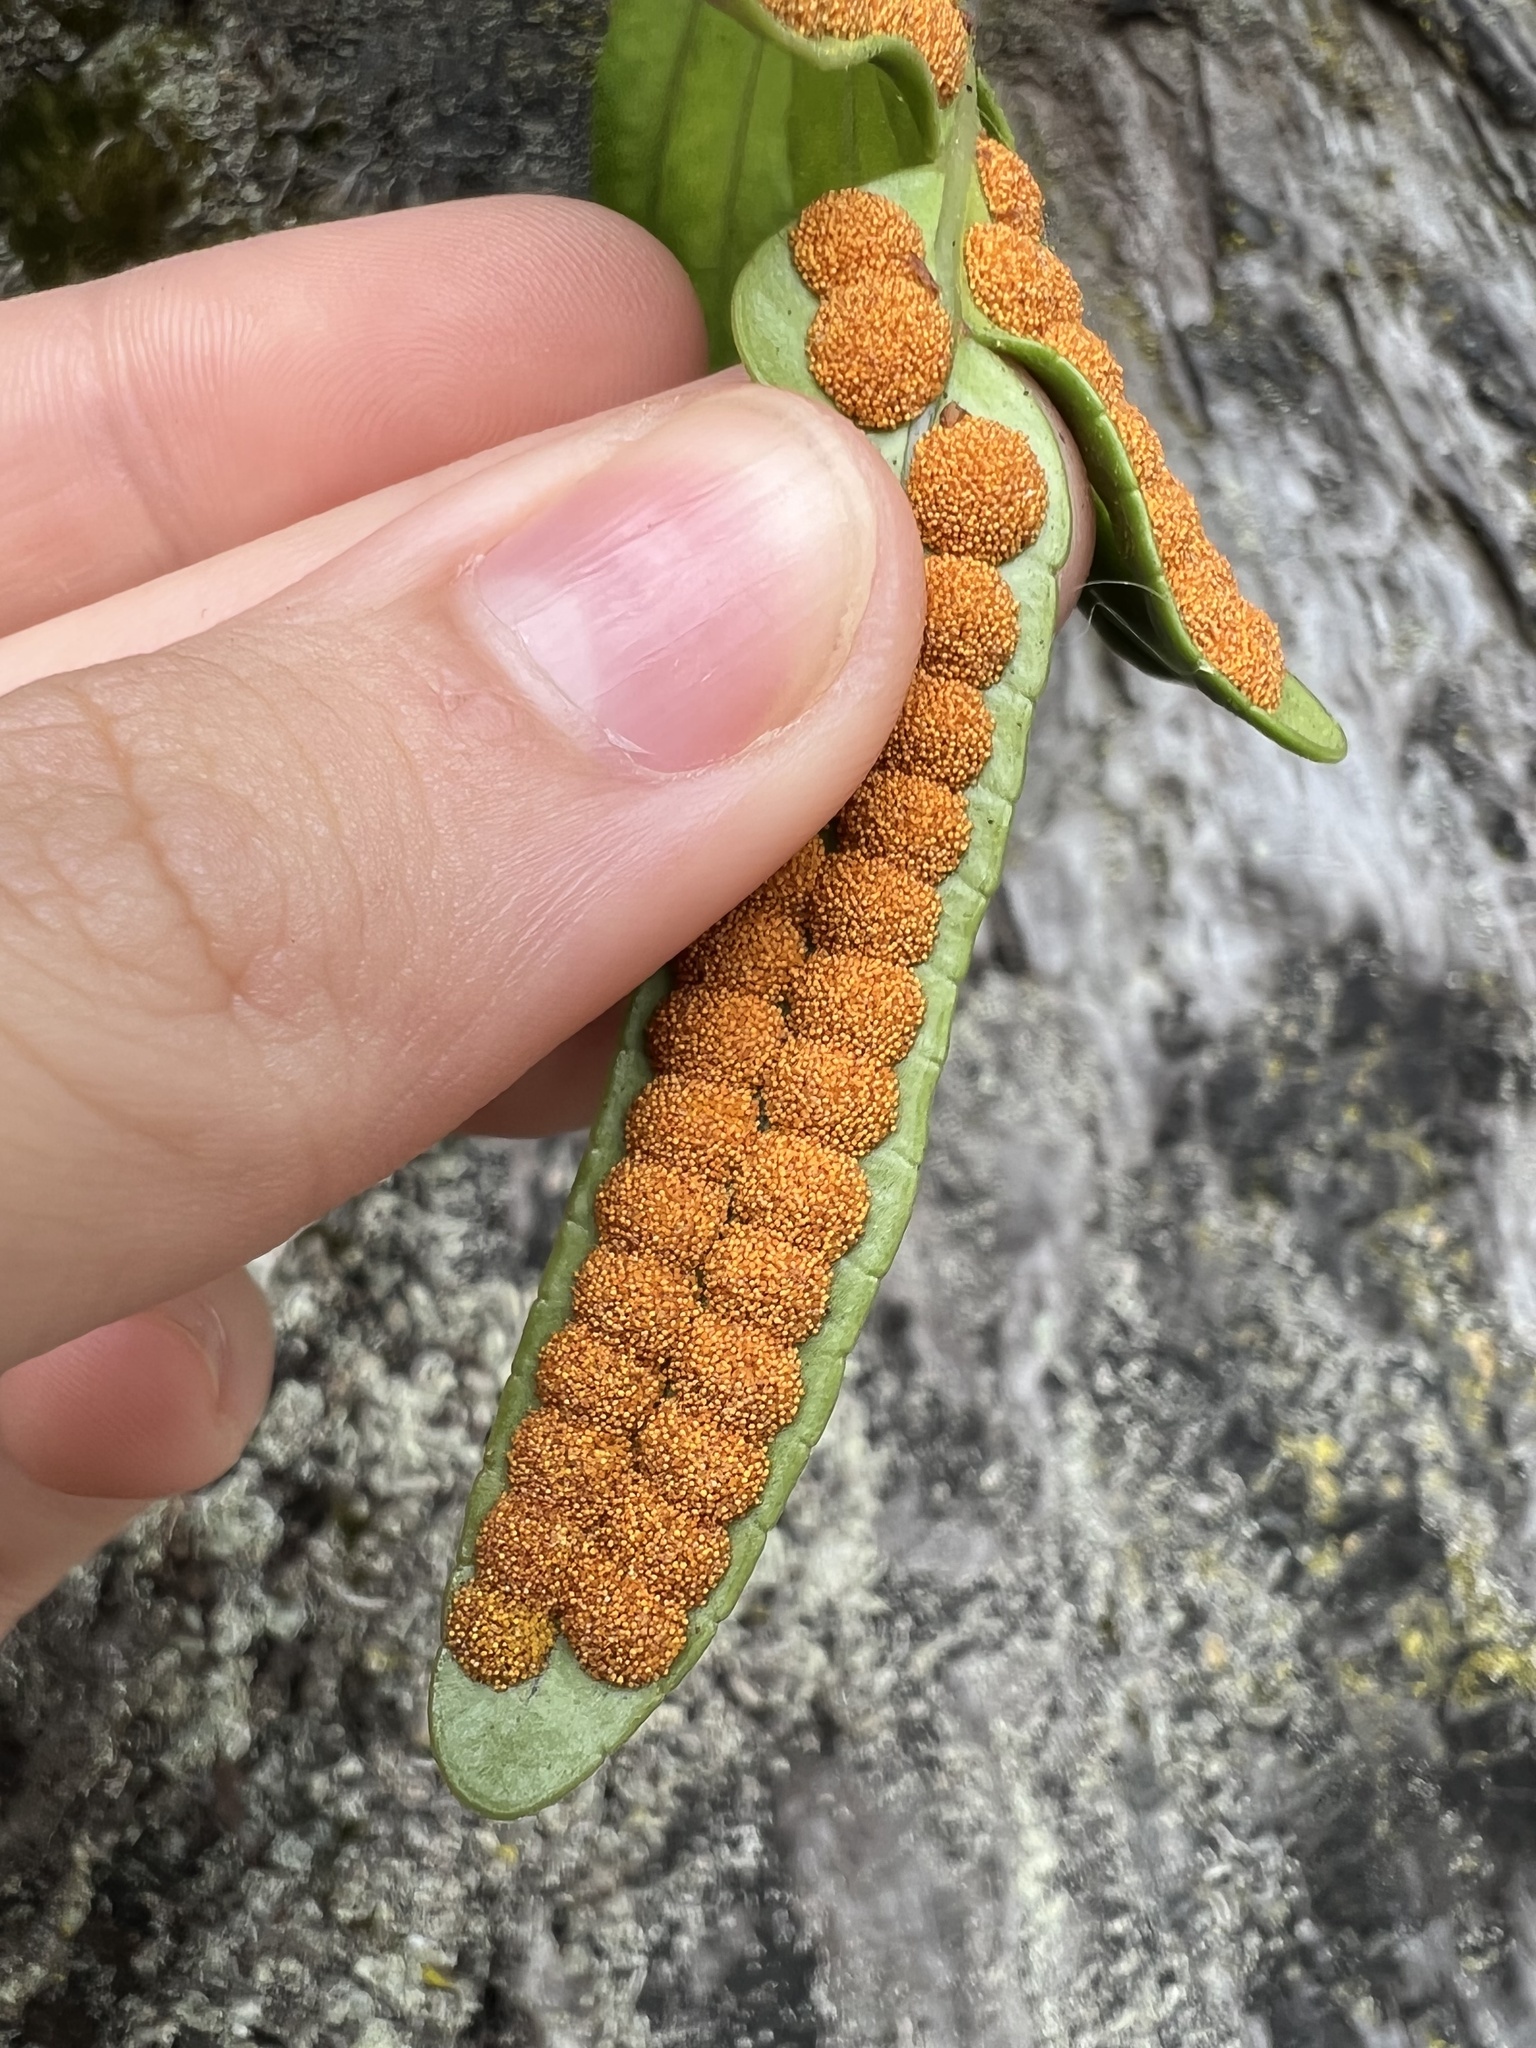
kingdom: Plantae
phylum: Tracheophyta
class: Polypodiopsida
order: Polypodiales
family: Polypodiaceae
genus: Polypodium
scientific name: Polypodium scouleri
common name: Scouler's polypody
